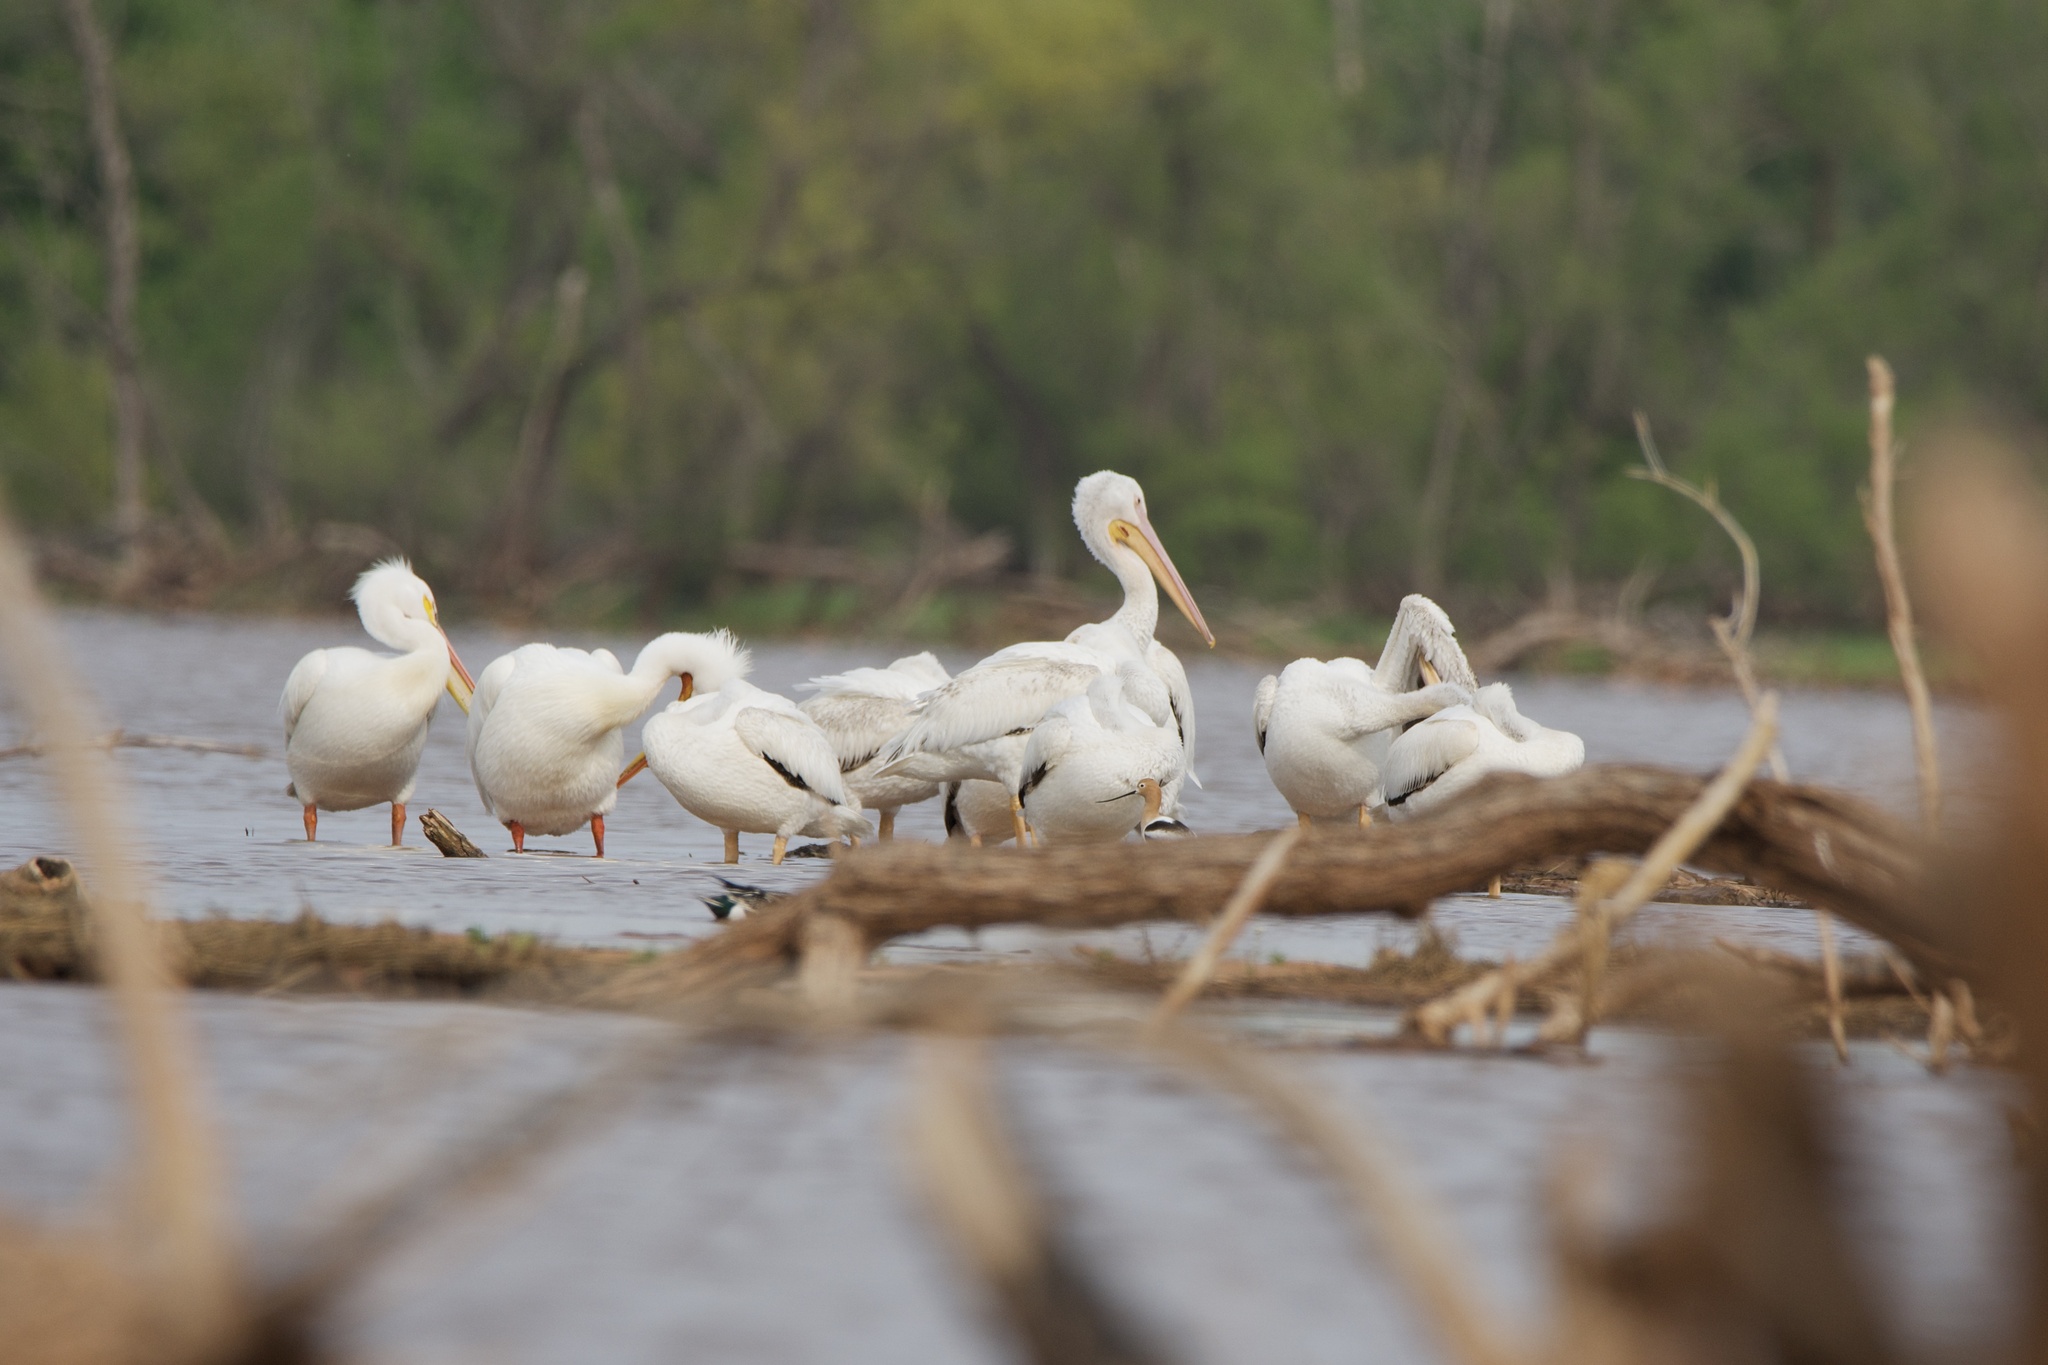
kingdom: Animalia
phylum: Chordata
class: Aves
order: Pelecaniformes
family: Pelecanidae
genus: Pelecanus
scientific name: Pelecanus erythrorhynchos
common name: American white pelican
